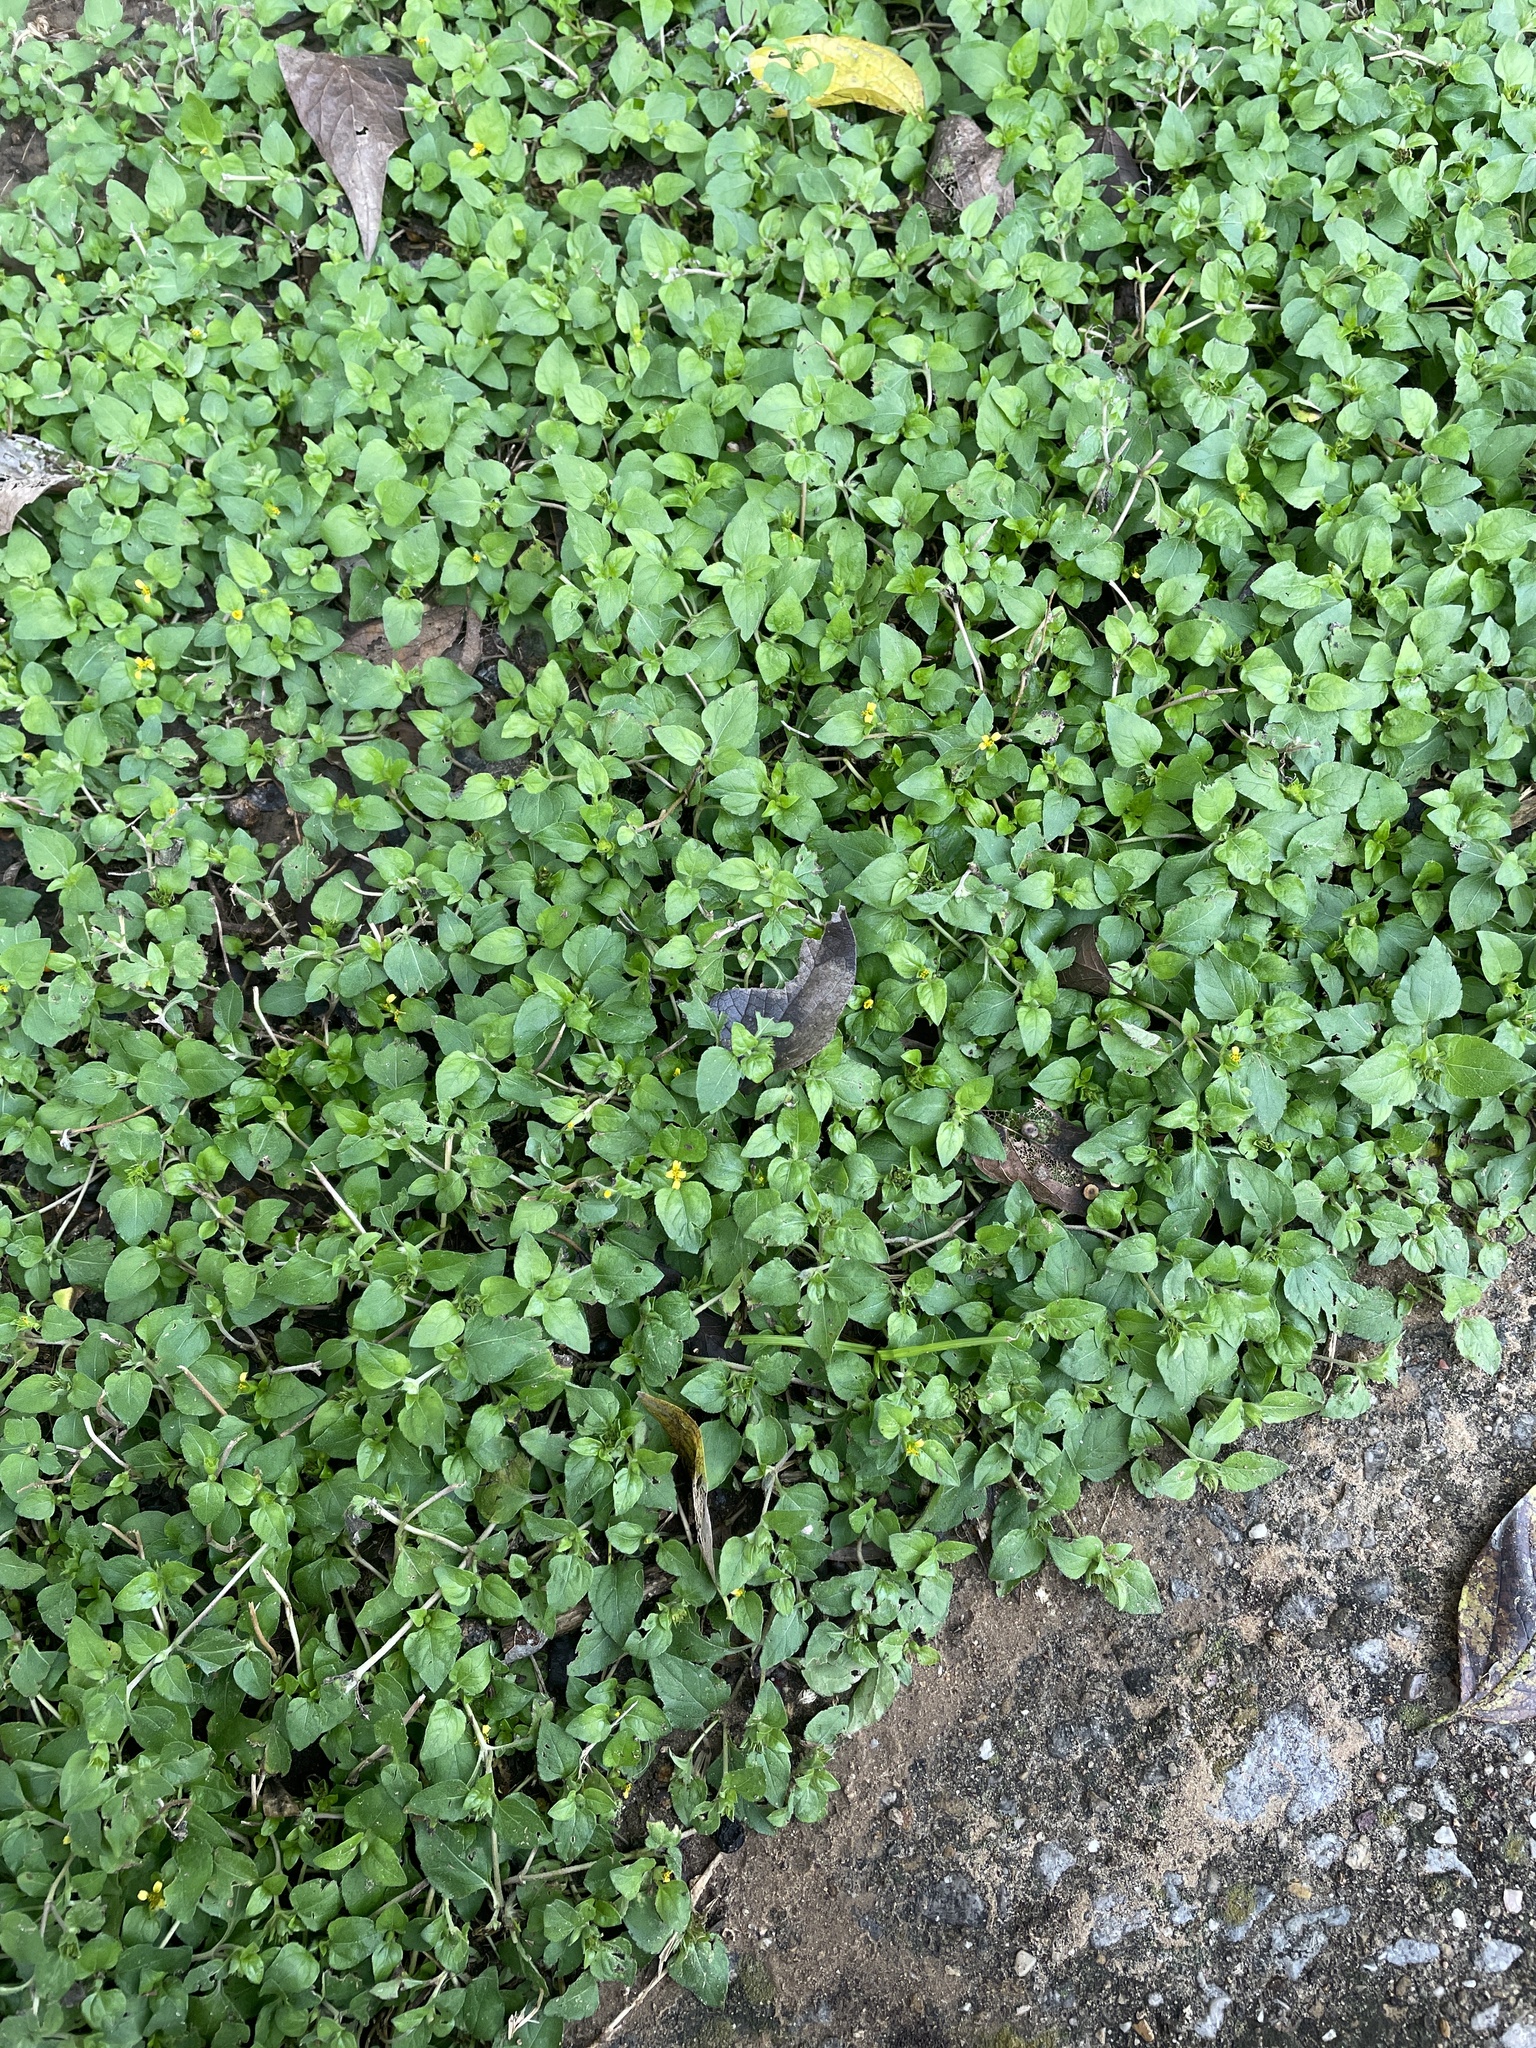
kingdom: Plantae
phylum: Tracheophyta
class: Magnoliopsida
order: Asterales
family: Asteraceae
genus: Calyptocarpus
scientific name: Calyptocarpus vialis
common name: Straggler daisy
